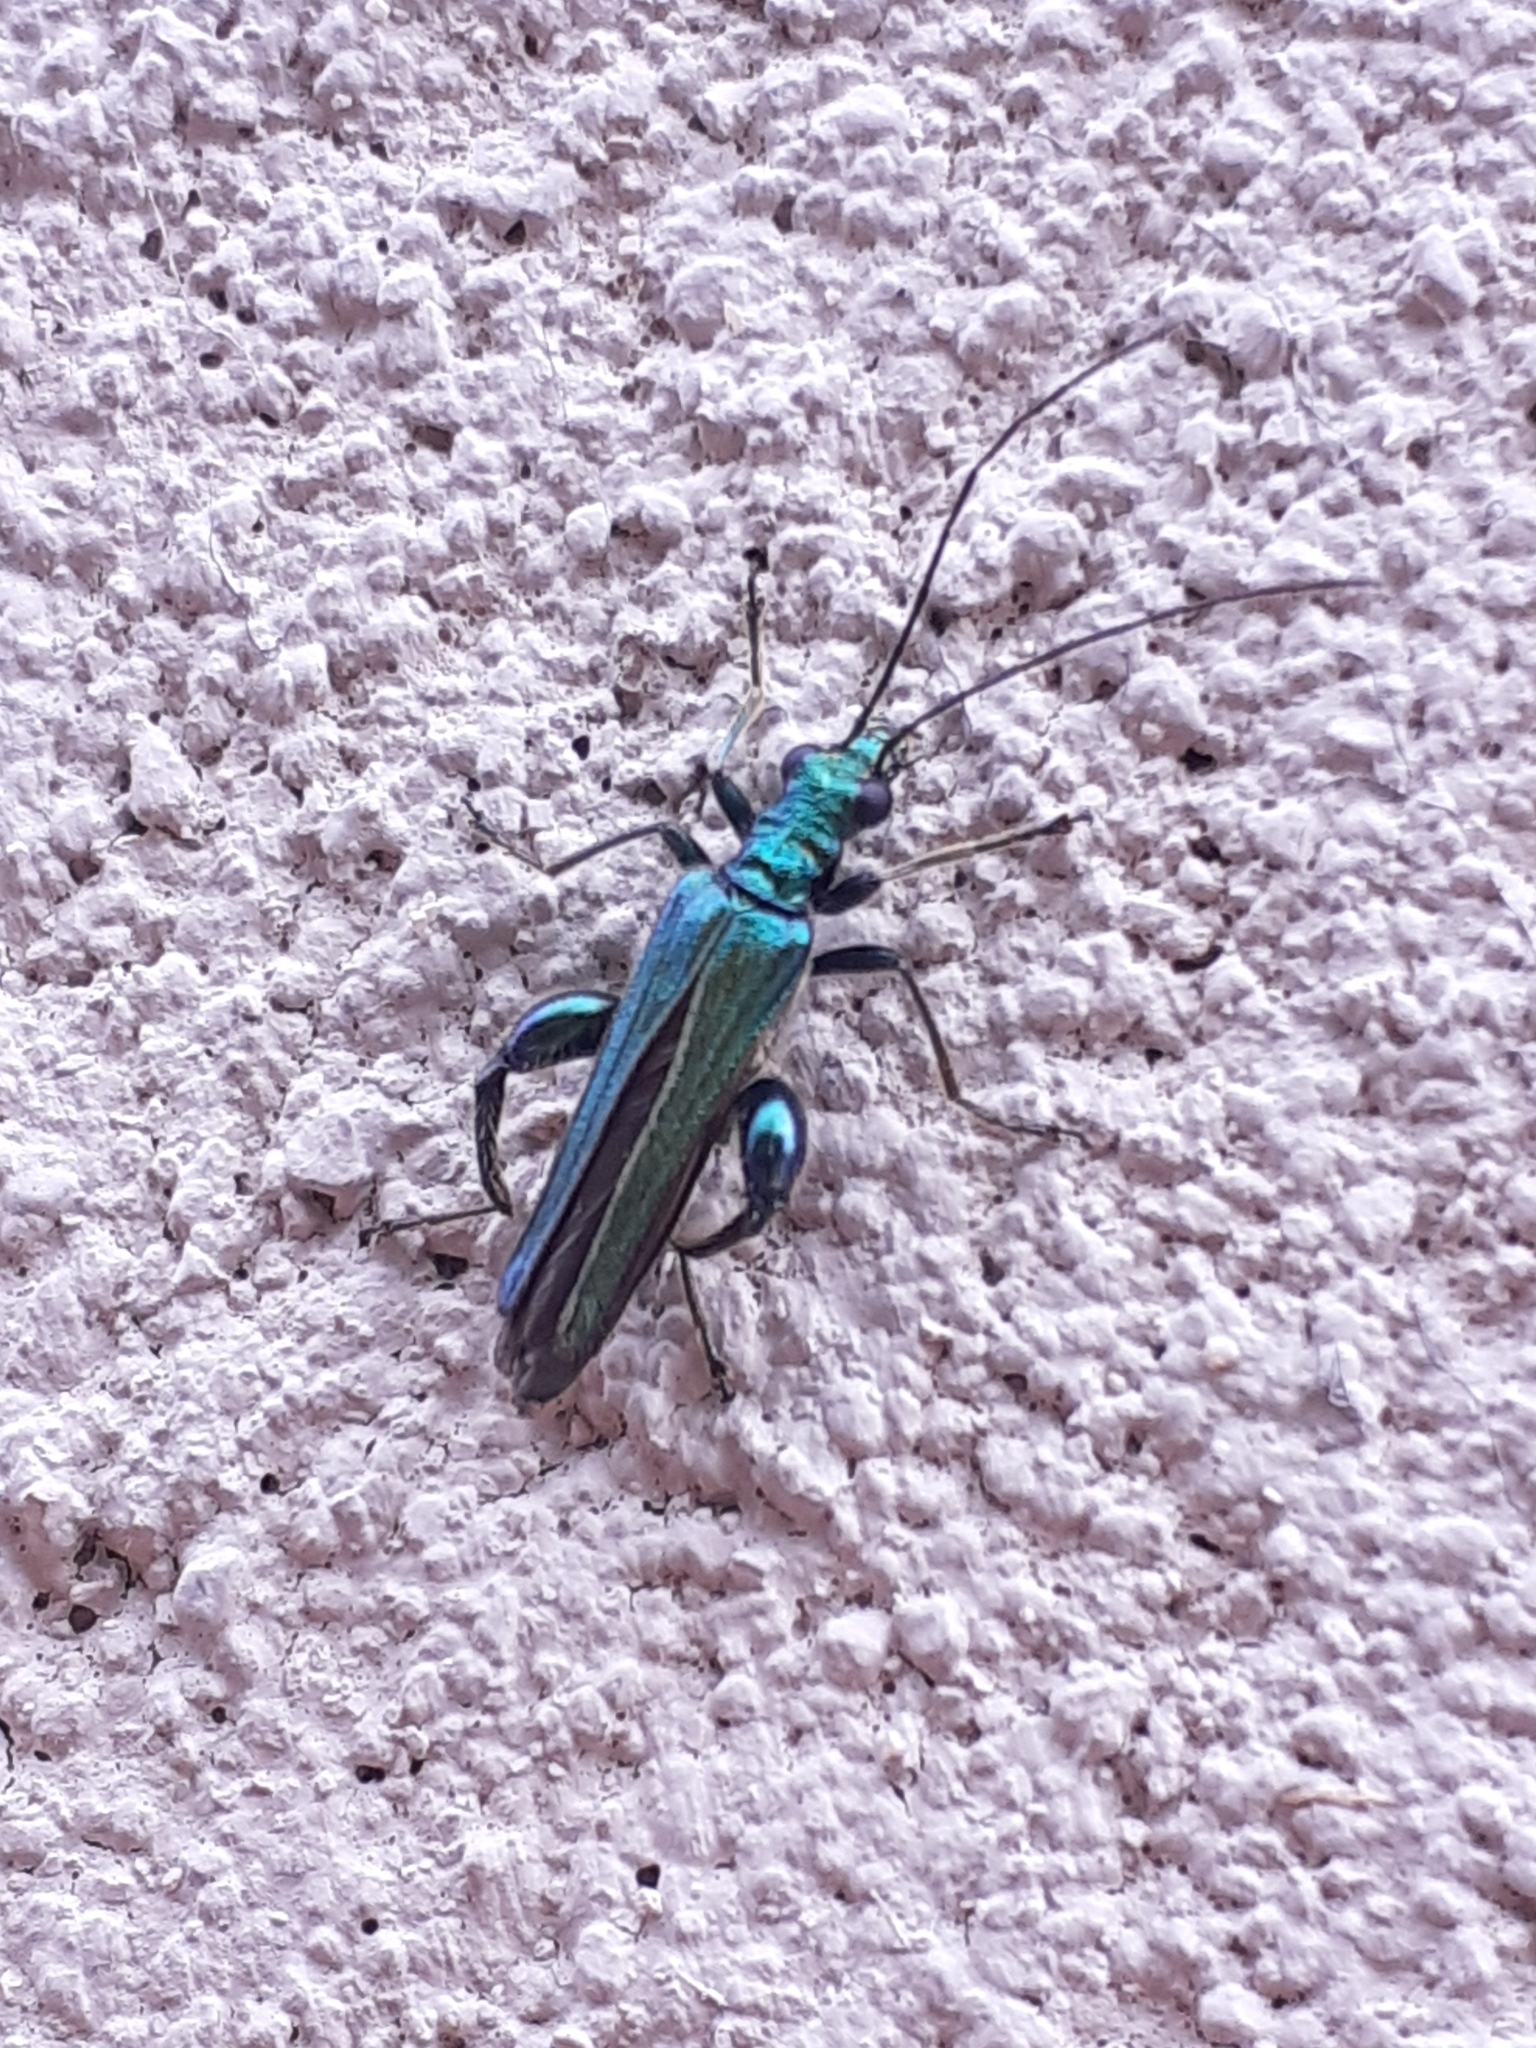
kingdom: Animalia
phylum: Arthropoda
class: Insecta
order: Coleoptera
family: Oedemeridae
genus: Oedemera
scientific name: Oedemera nobilis
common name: Swollen-thighed beetle
